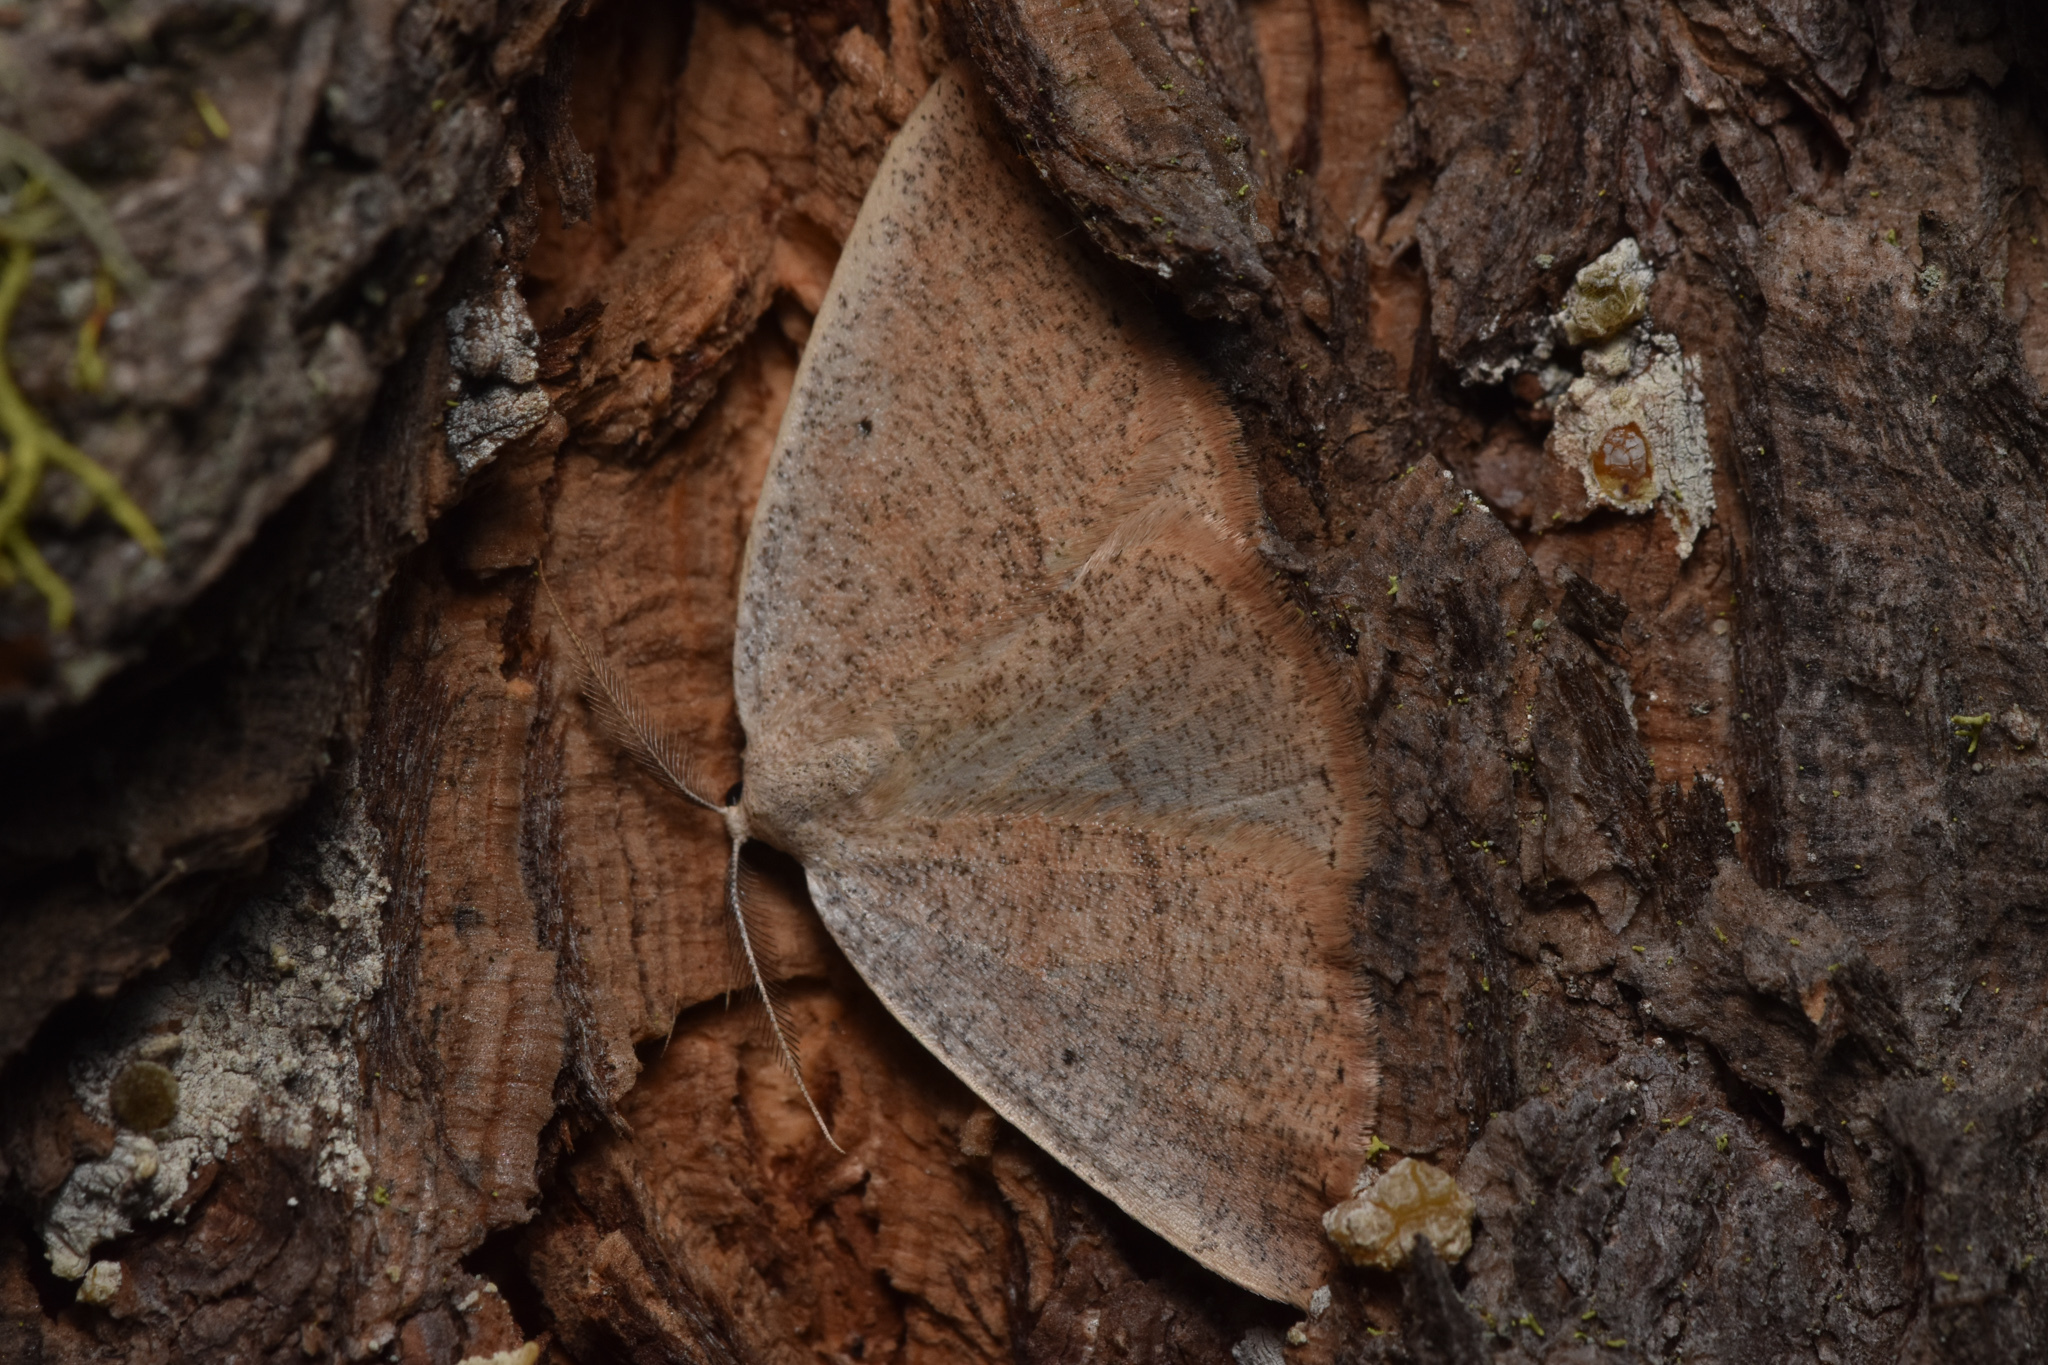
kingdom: Animalia
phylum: Arthropoda
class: Insecta
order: Lepidoptera
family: Geometridae
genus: Eudrepanulatrix
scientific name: Eudrepanulatrix rectifascia
